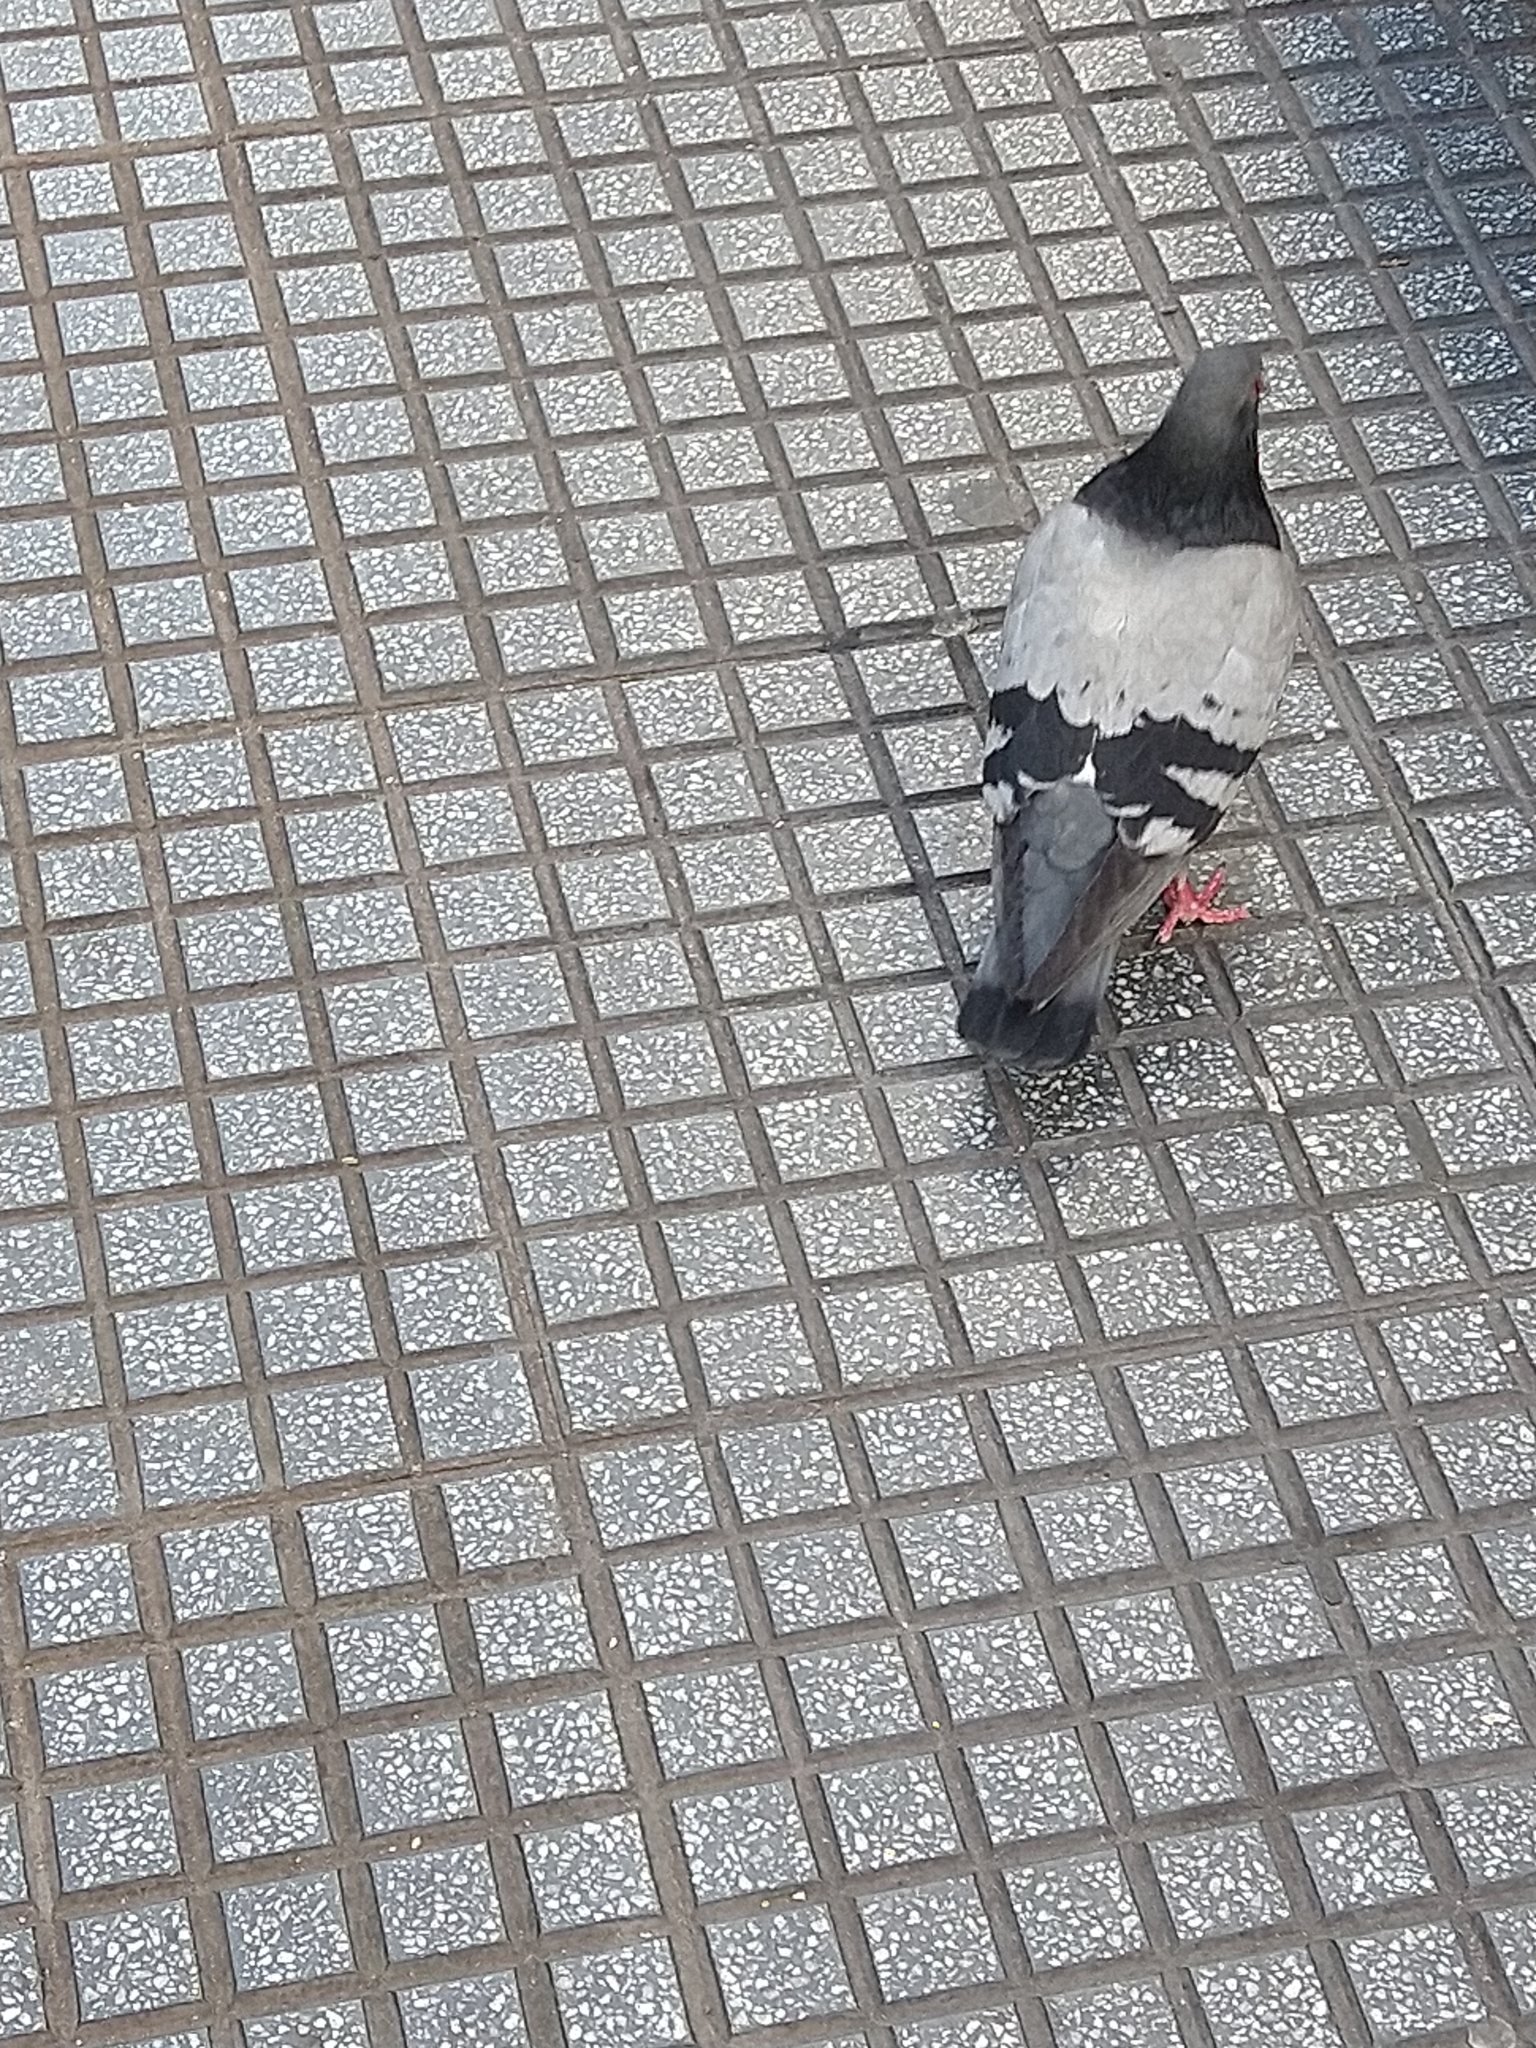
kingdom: Animalia
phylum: Chordata
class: Aves
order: Columbiformes
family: Columbidae
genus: Columba
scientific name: Columba livia
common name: Rock pigeon
